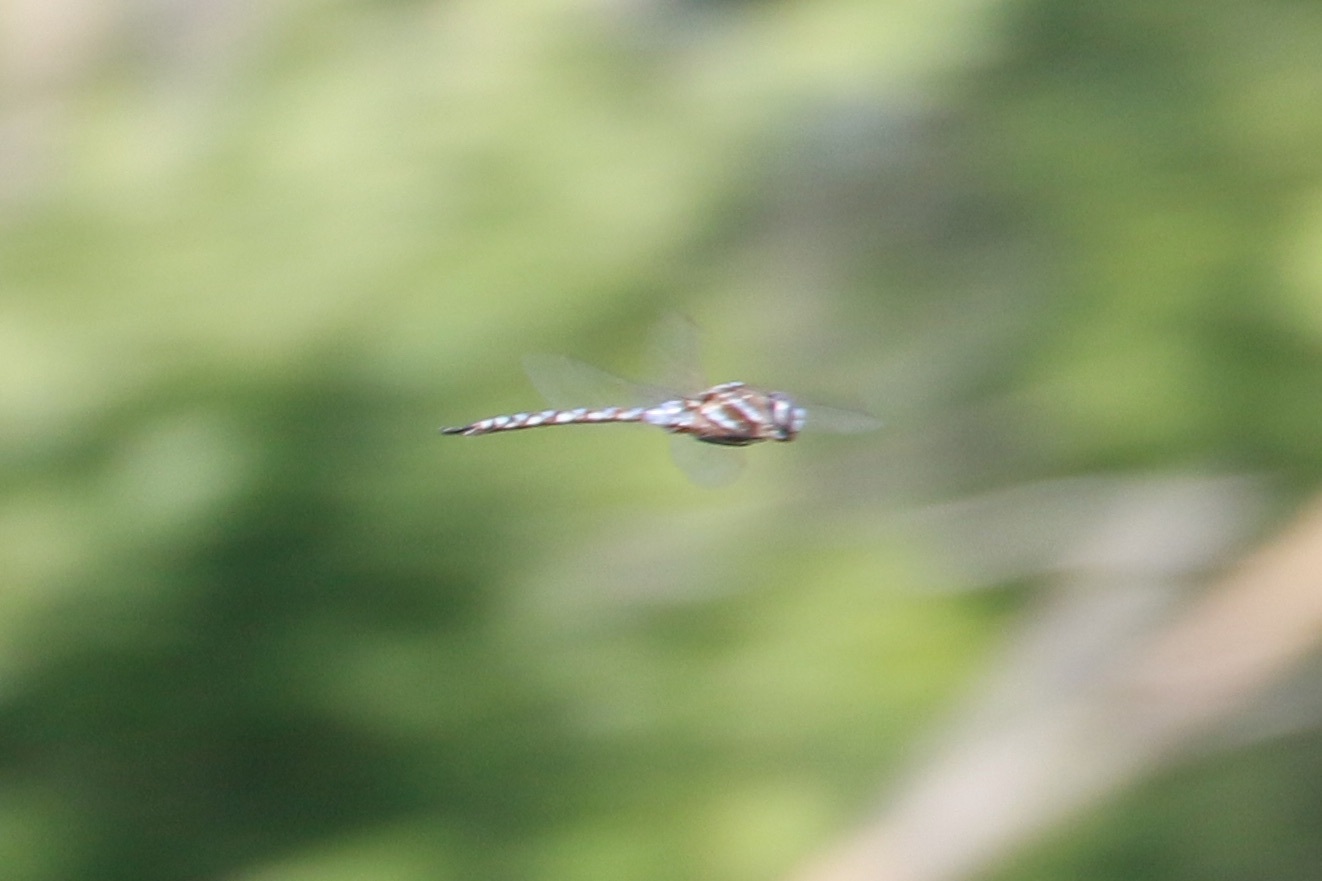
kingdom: Animalia
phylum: Arthropoda
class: Insecta
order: Odonata
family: Aeshnidae
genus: Rhionaeschna
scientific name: Rhionaeschna multicolor
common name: Blue-eyed darner
